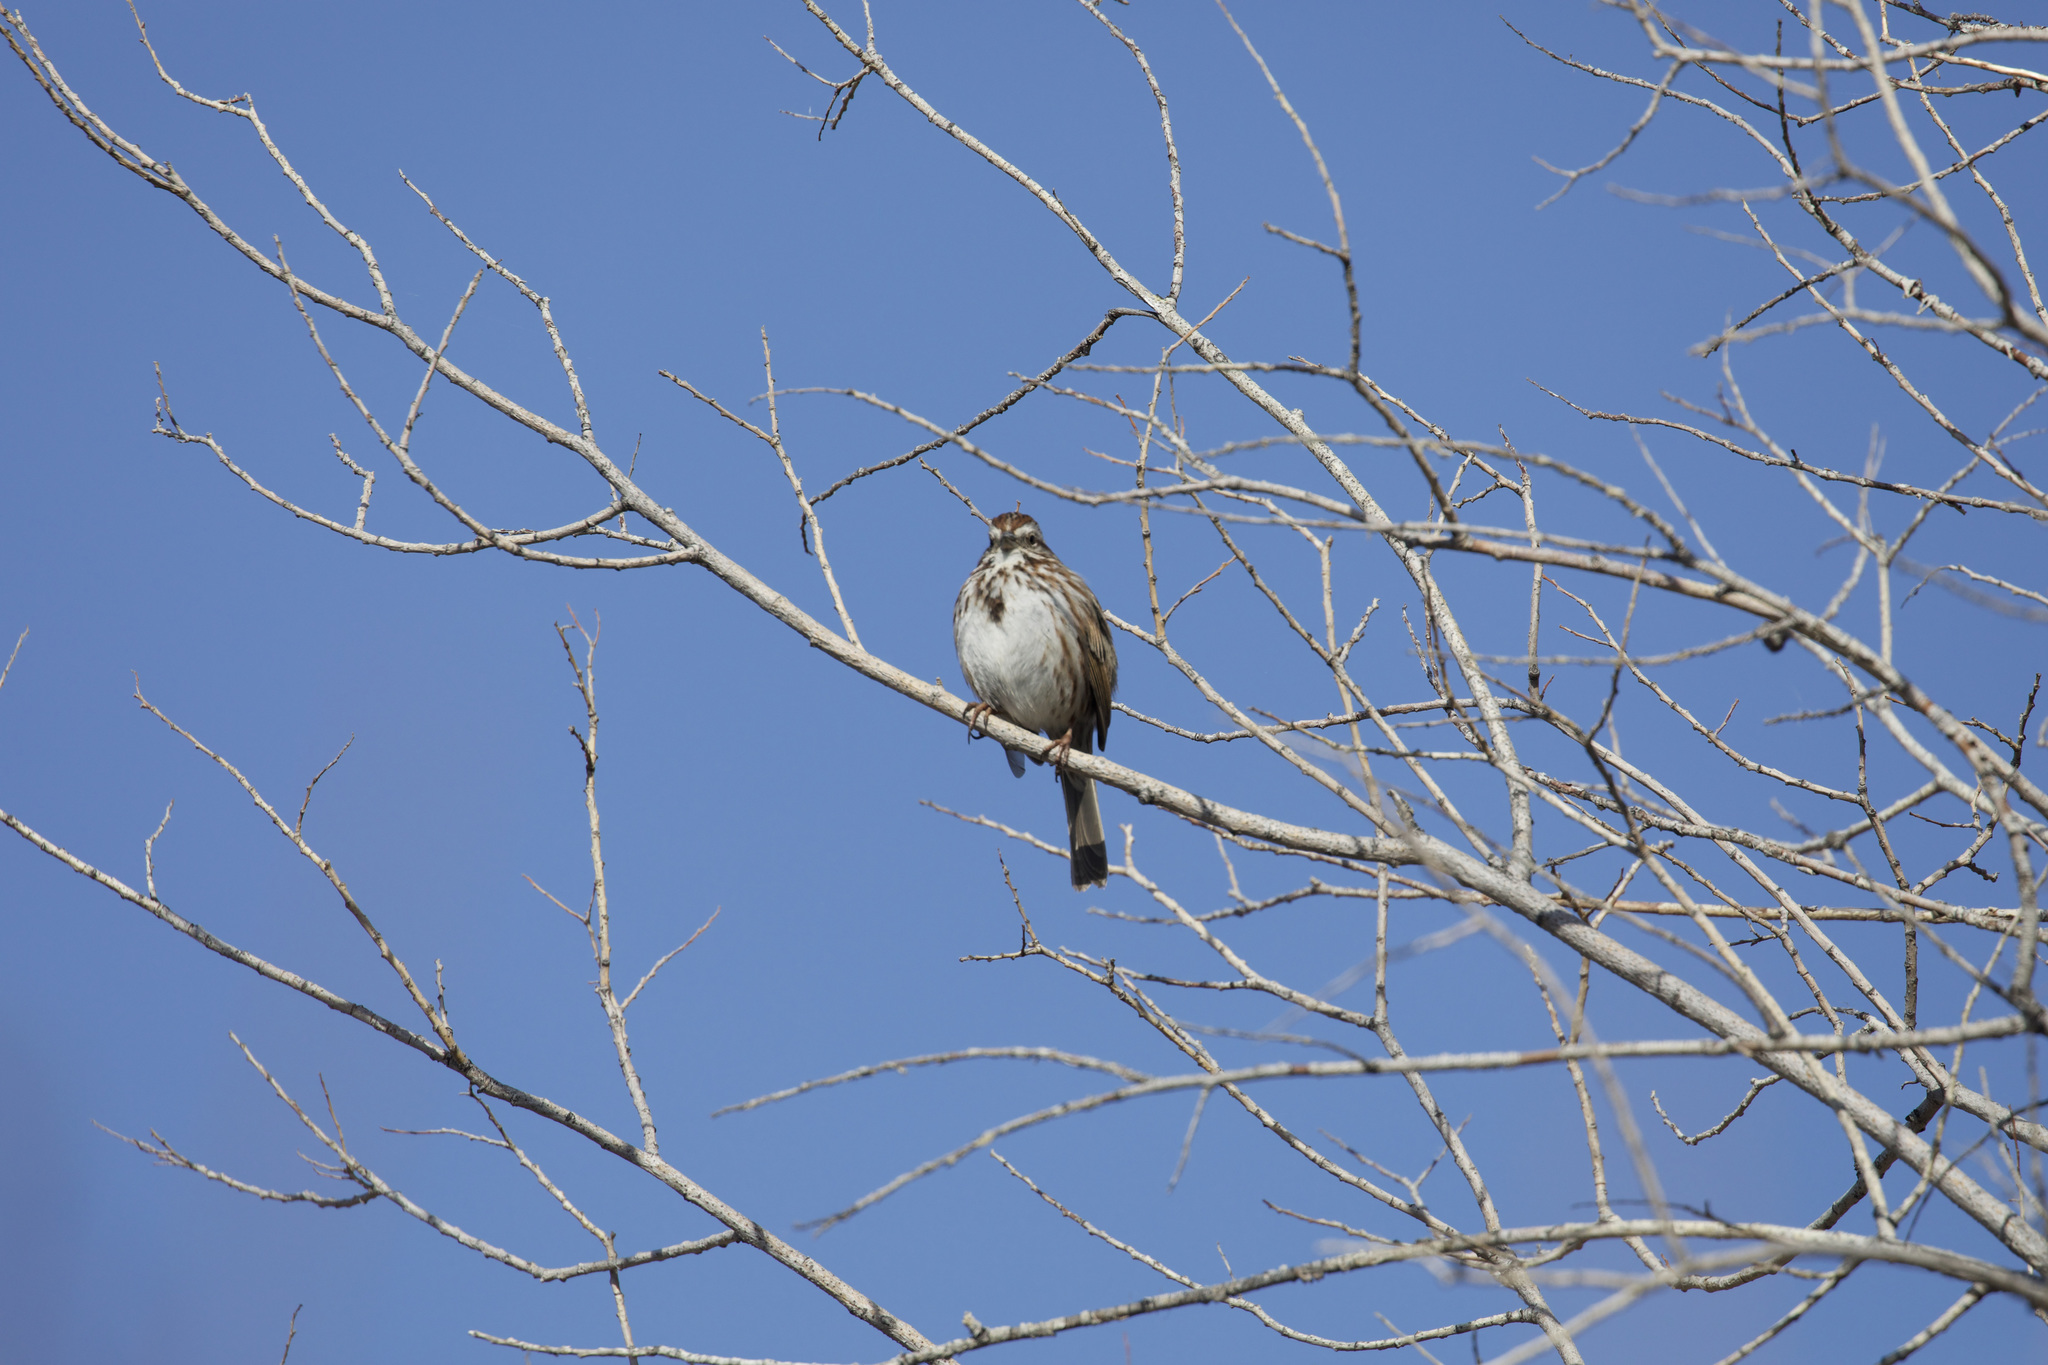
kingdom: Animalia
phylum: Chordata
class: Aves
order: Passeriformes
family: Passerellidae
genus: Melospiza
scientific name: Melospiza melodia
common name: Song sparrow
